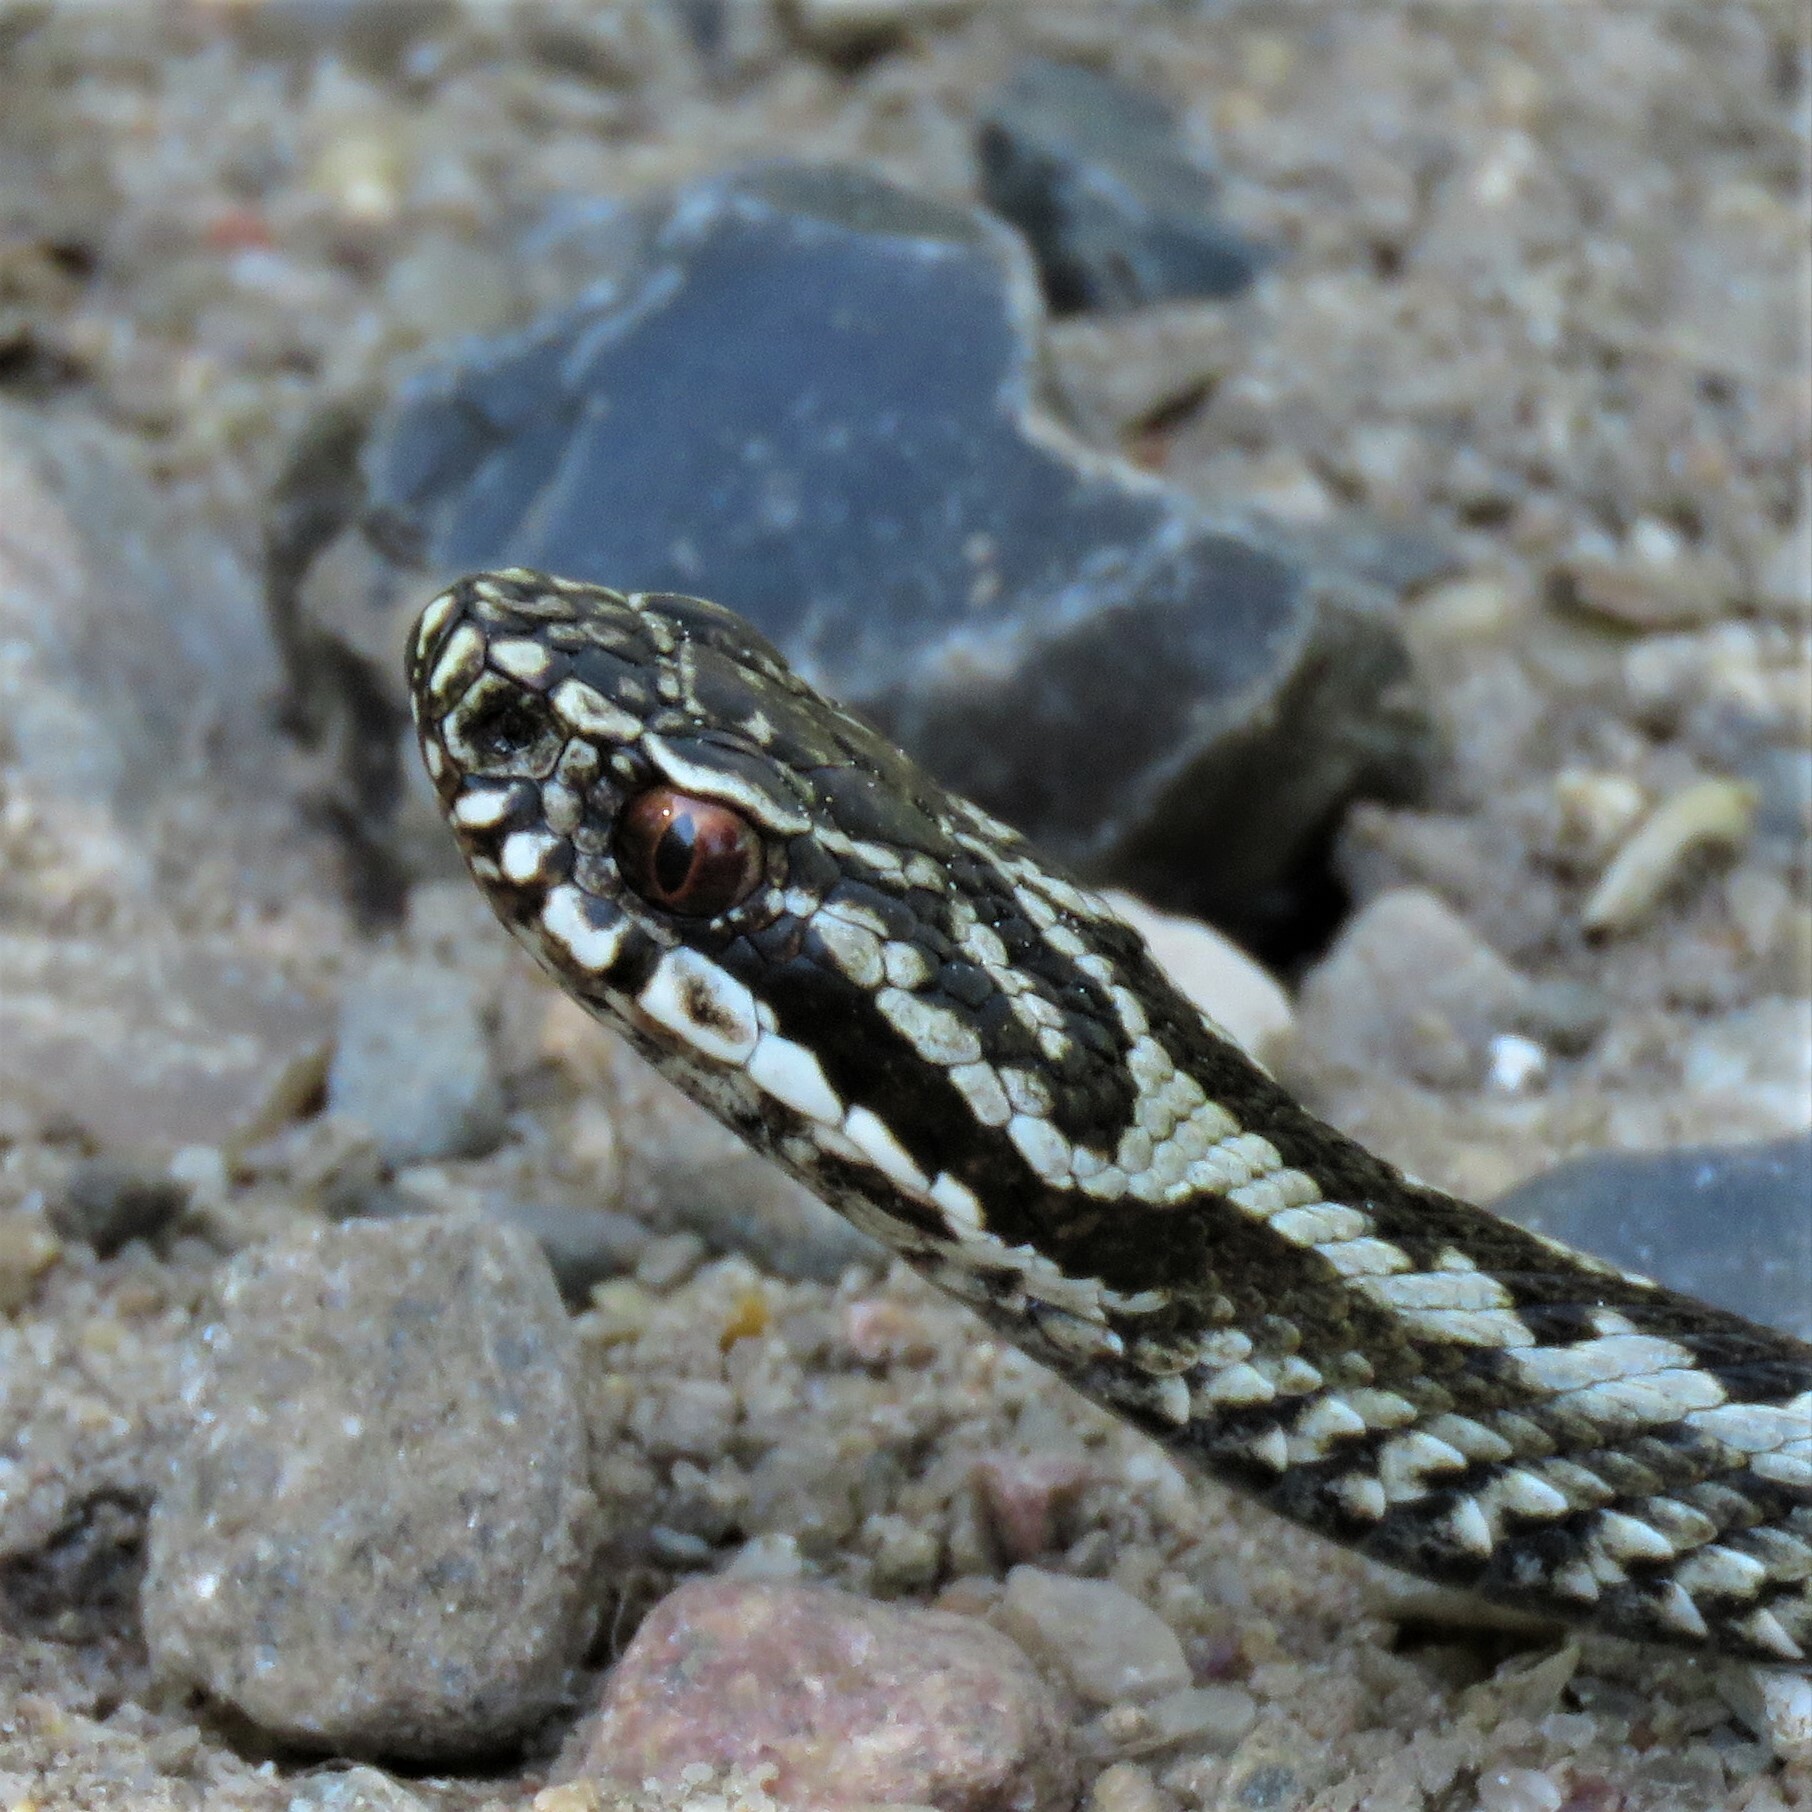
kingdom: Animalia
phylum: Chordata
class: Squamata
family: Viperidae
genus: Vipera
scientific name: Vipera berus
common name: Adder
